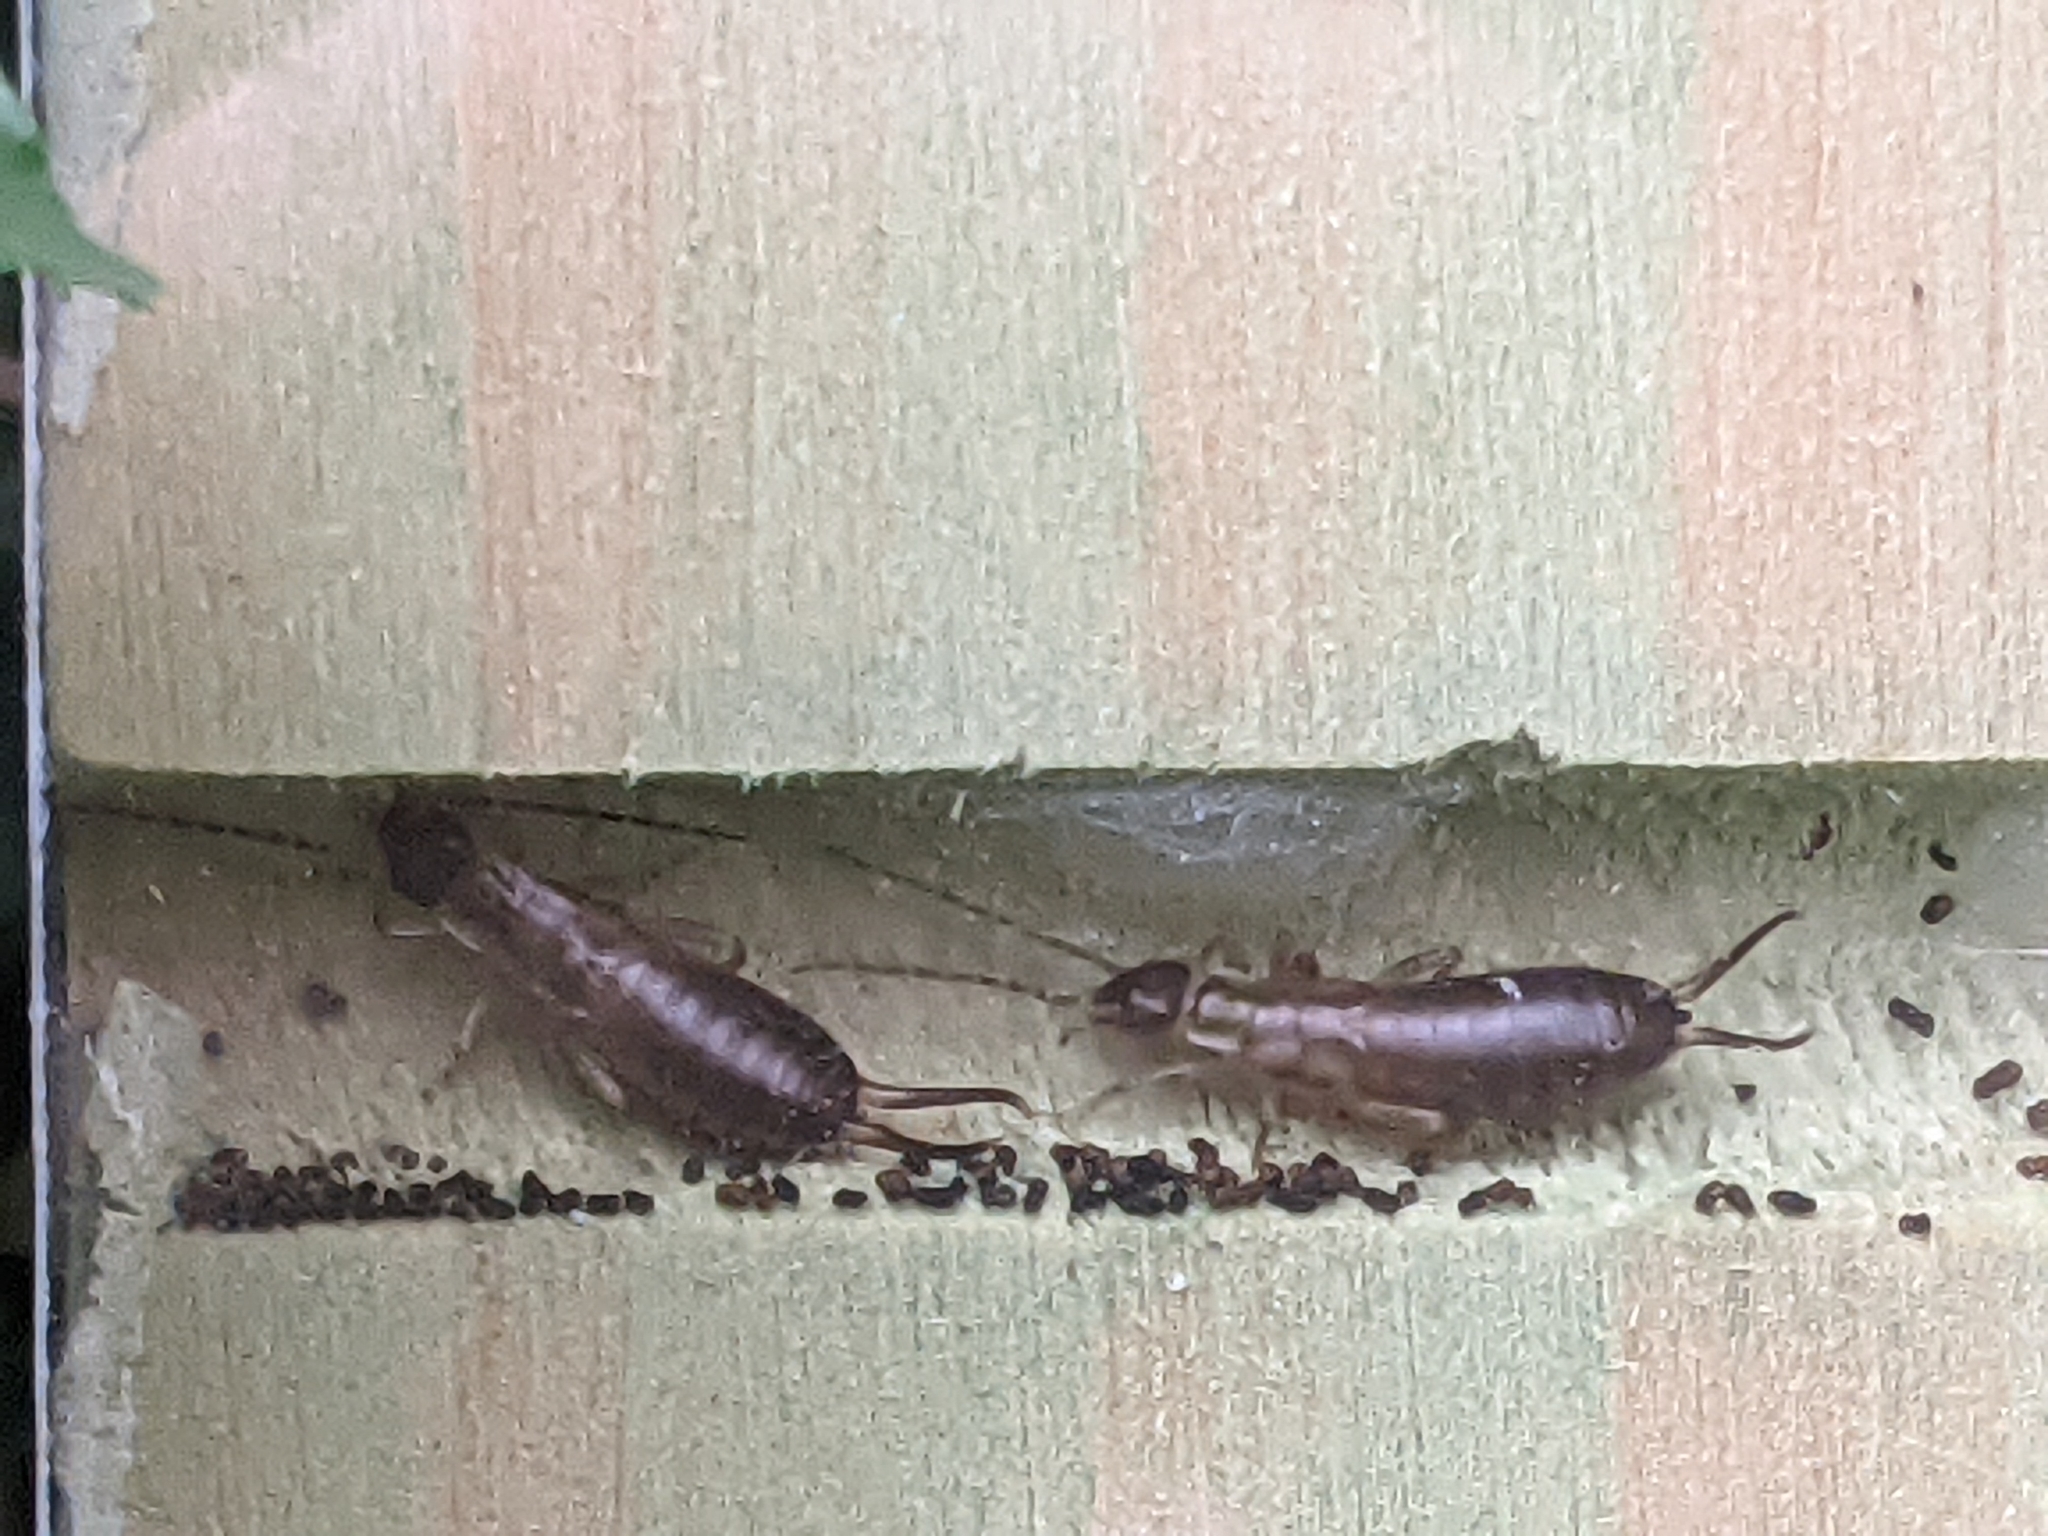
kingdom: Animalia
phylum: Arthropoda
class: Insecta
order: Dermaptera
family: Forficulidae
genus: Forficula
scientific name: Forficula
